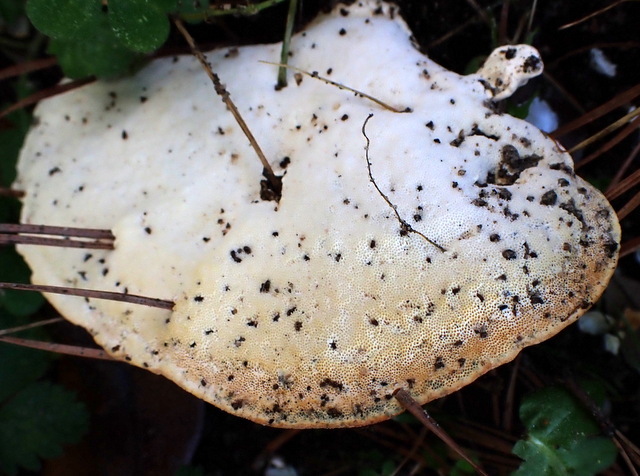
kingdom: Fungi
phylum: Basidiomycota
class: Agaricomycetes
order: Polyporales
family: Polyporaceae
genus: Trametes
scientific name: Trametes lactinea
